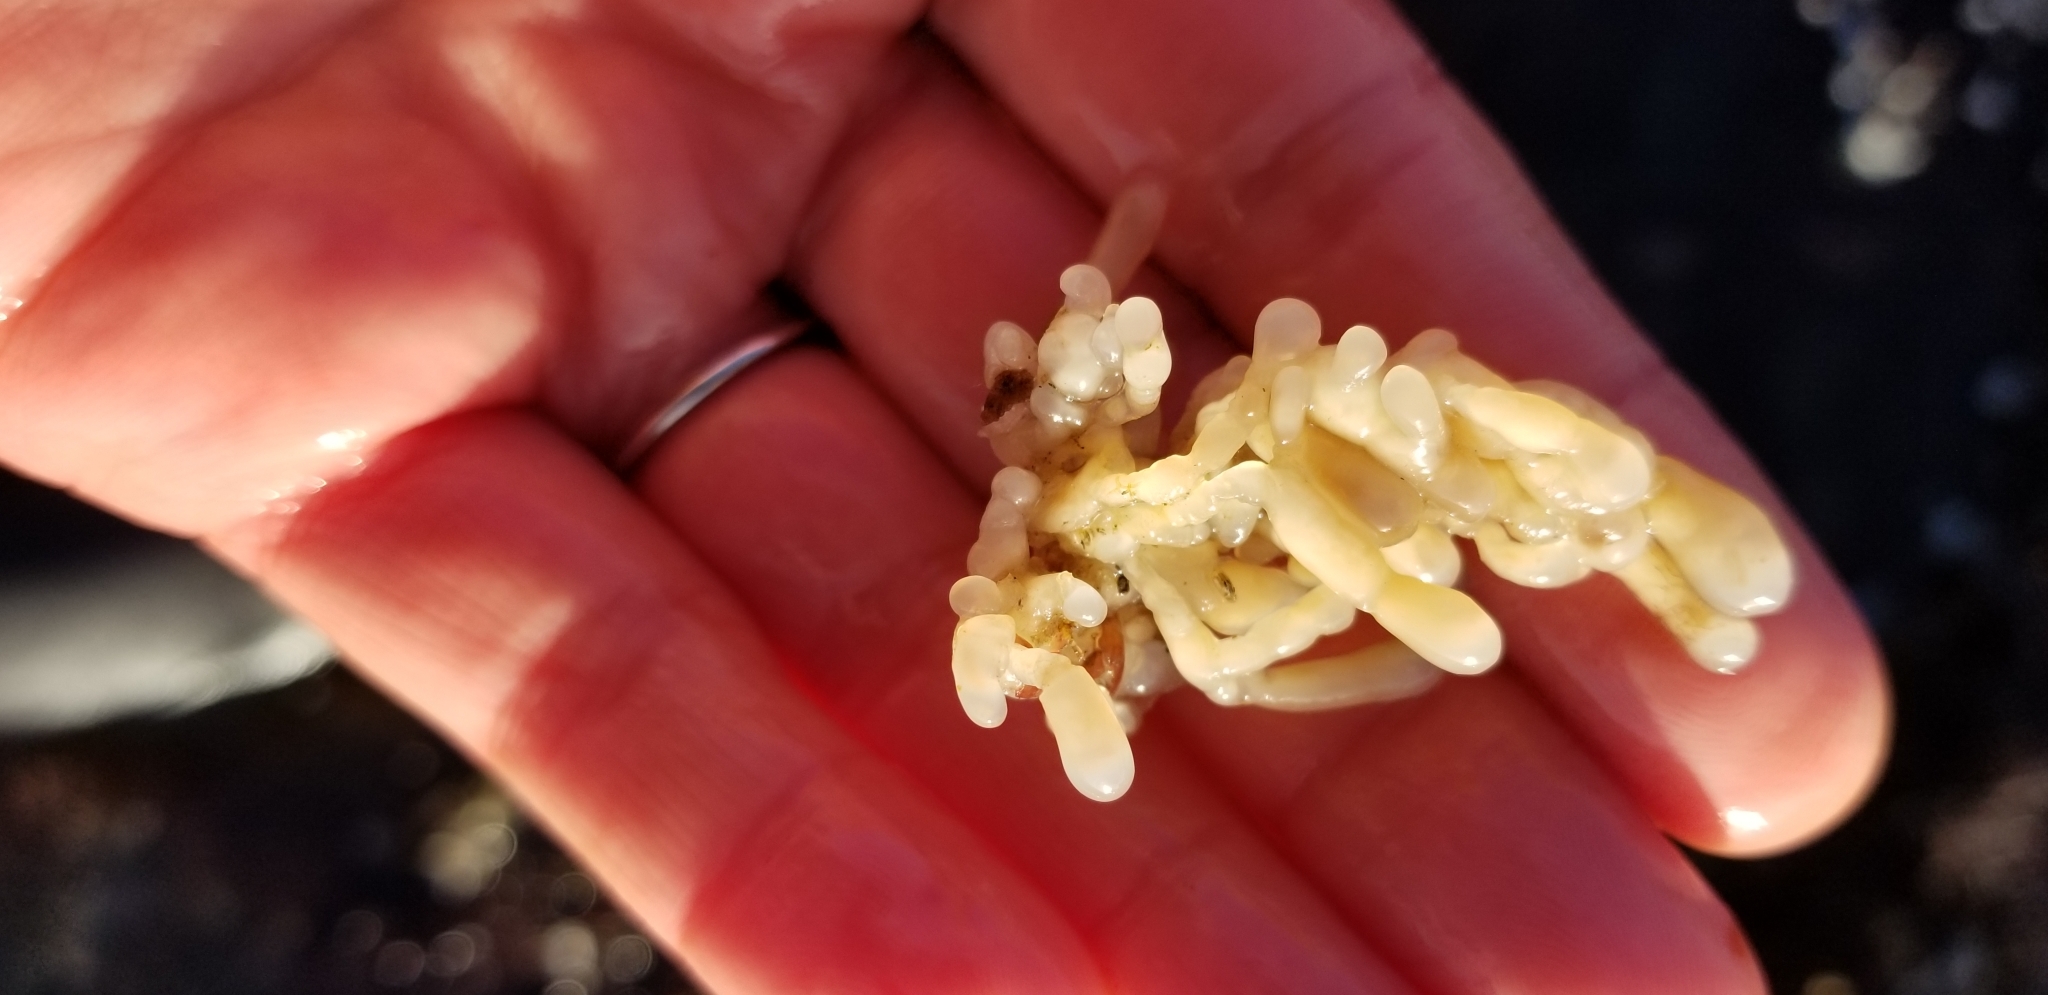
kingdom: Animalia
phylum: Chordata
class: Ascidiacea
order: Aplousobranchia
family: Holozoidae
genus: Distaplia
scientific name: Distaplia smithi
